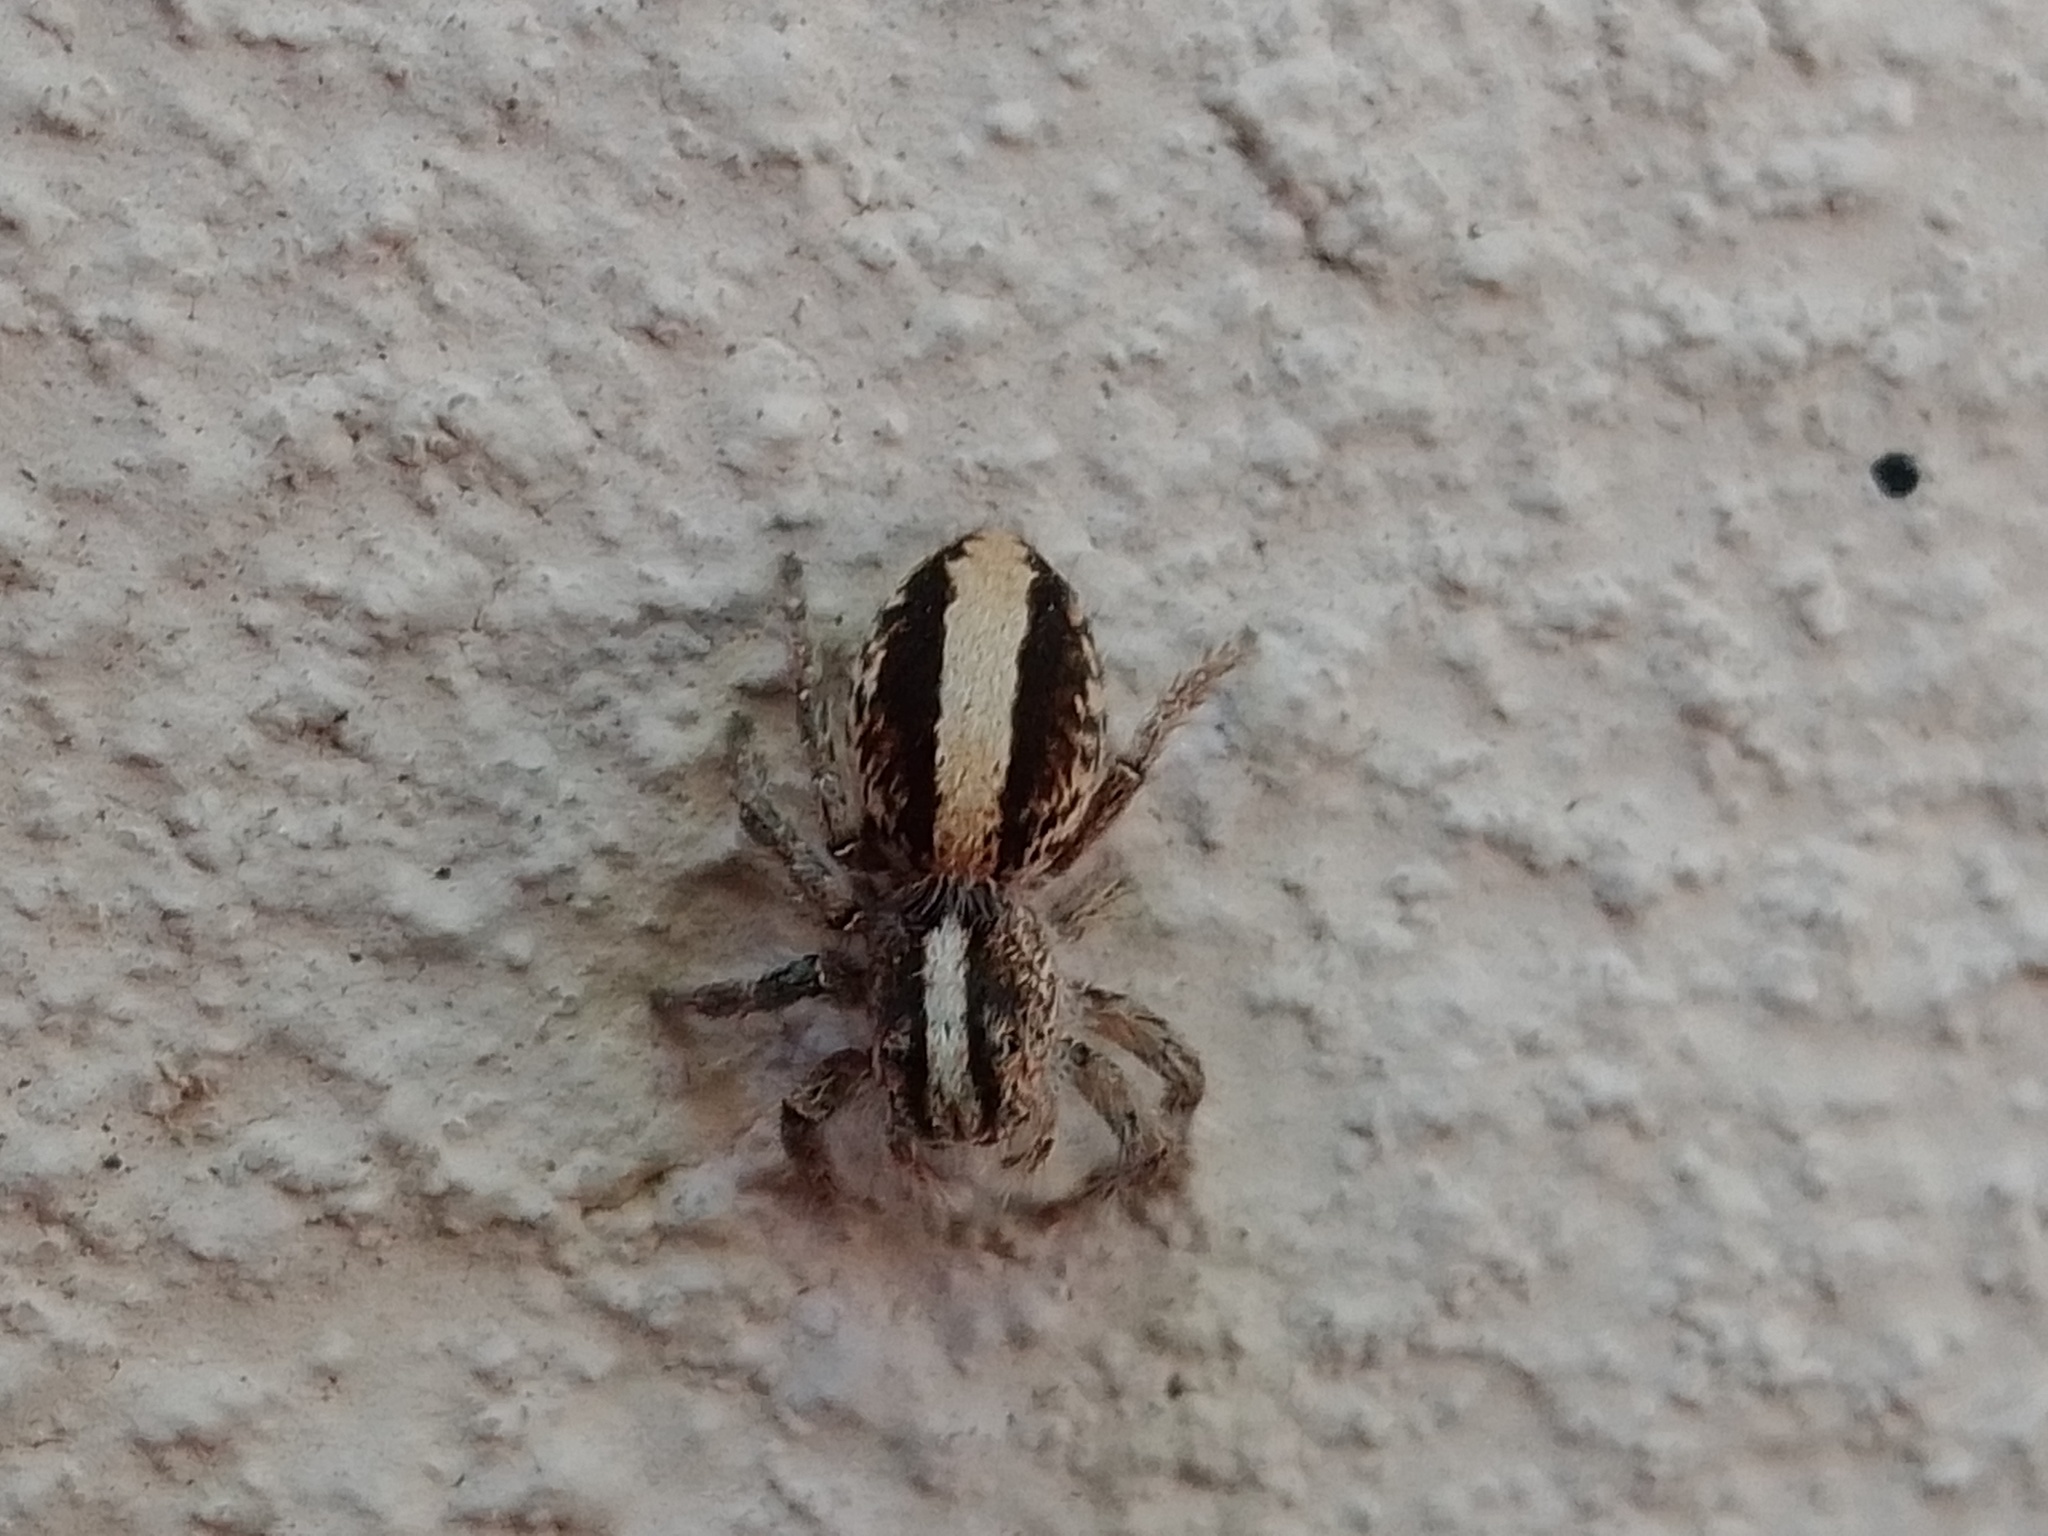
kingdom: Animalia
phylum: Arthropoda
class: Arachnida
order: Araneae
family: Salticidae
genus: Megafreya
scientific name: Megafreya sutrix
